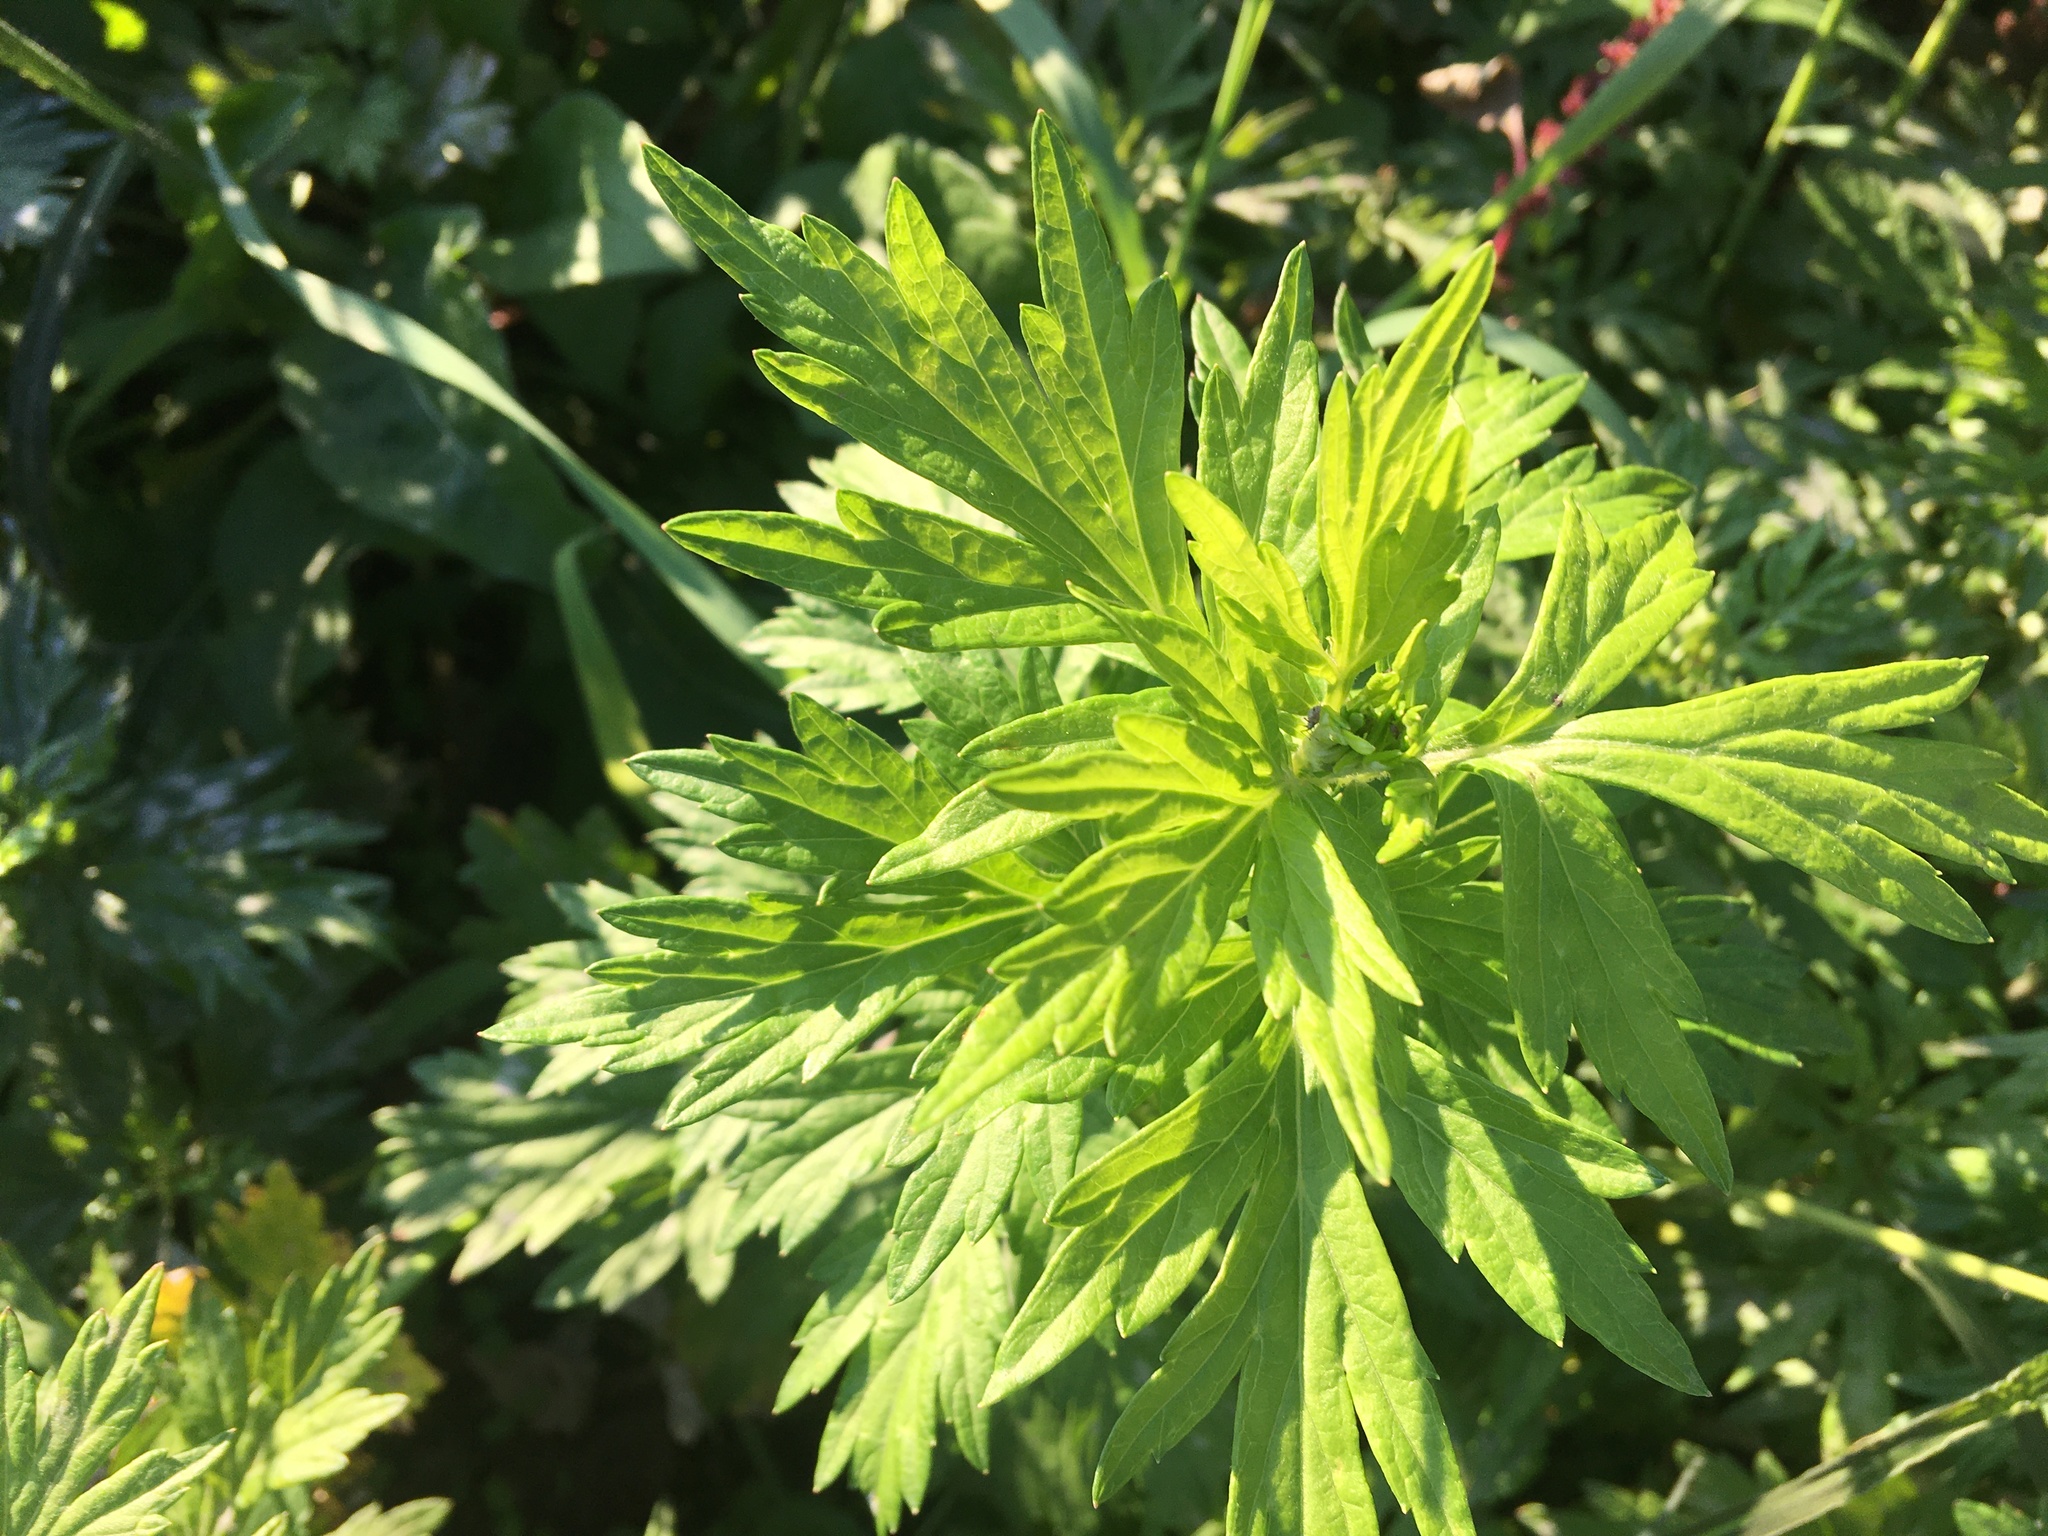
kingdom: Plantae
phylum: Tracheophyta
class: Magnoliopsida
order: Asterales
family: Asteraceae
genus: Artemisia
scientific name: Artemisia vulgaris
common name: Mugwort
